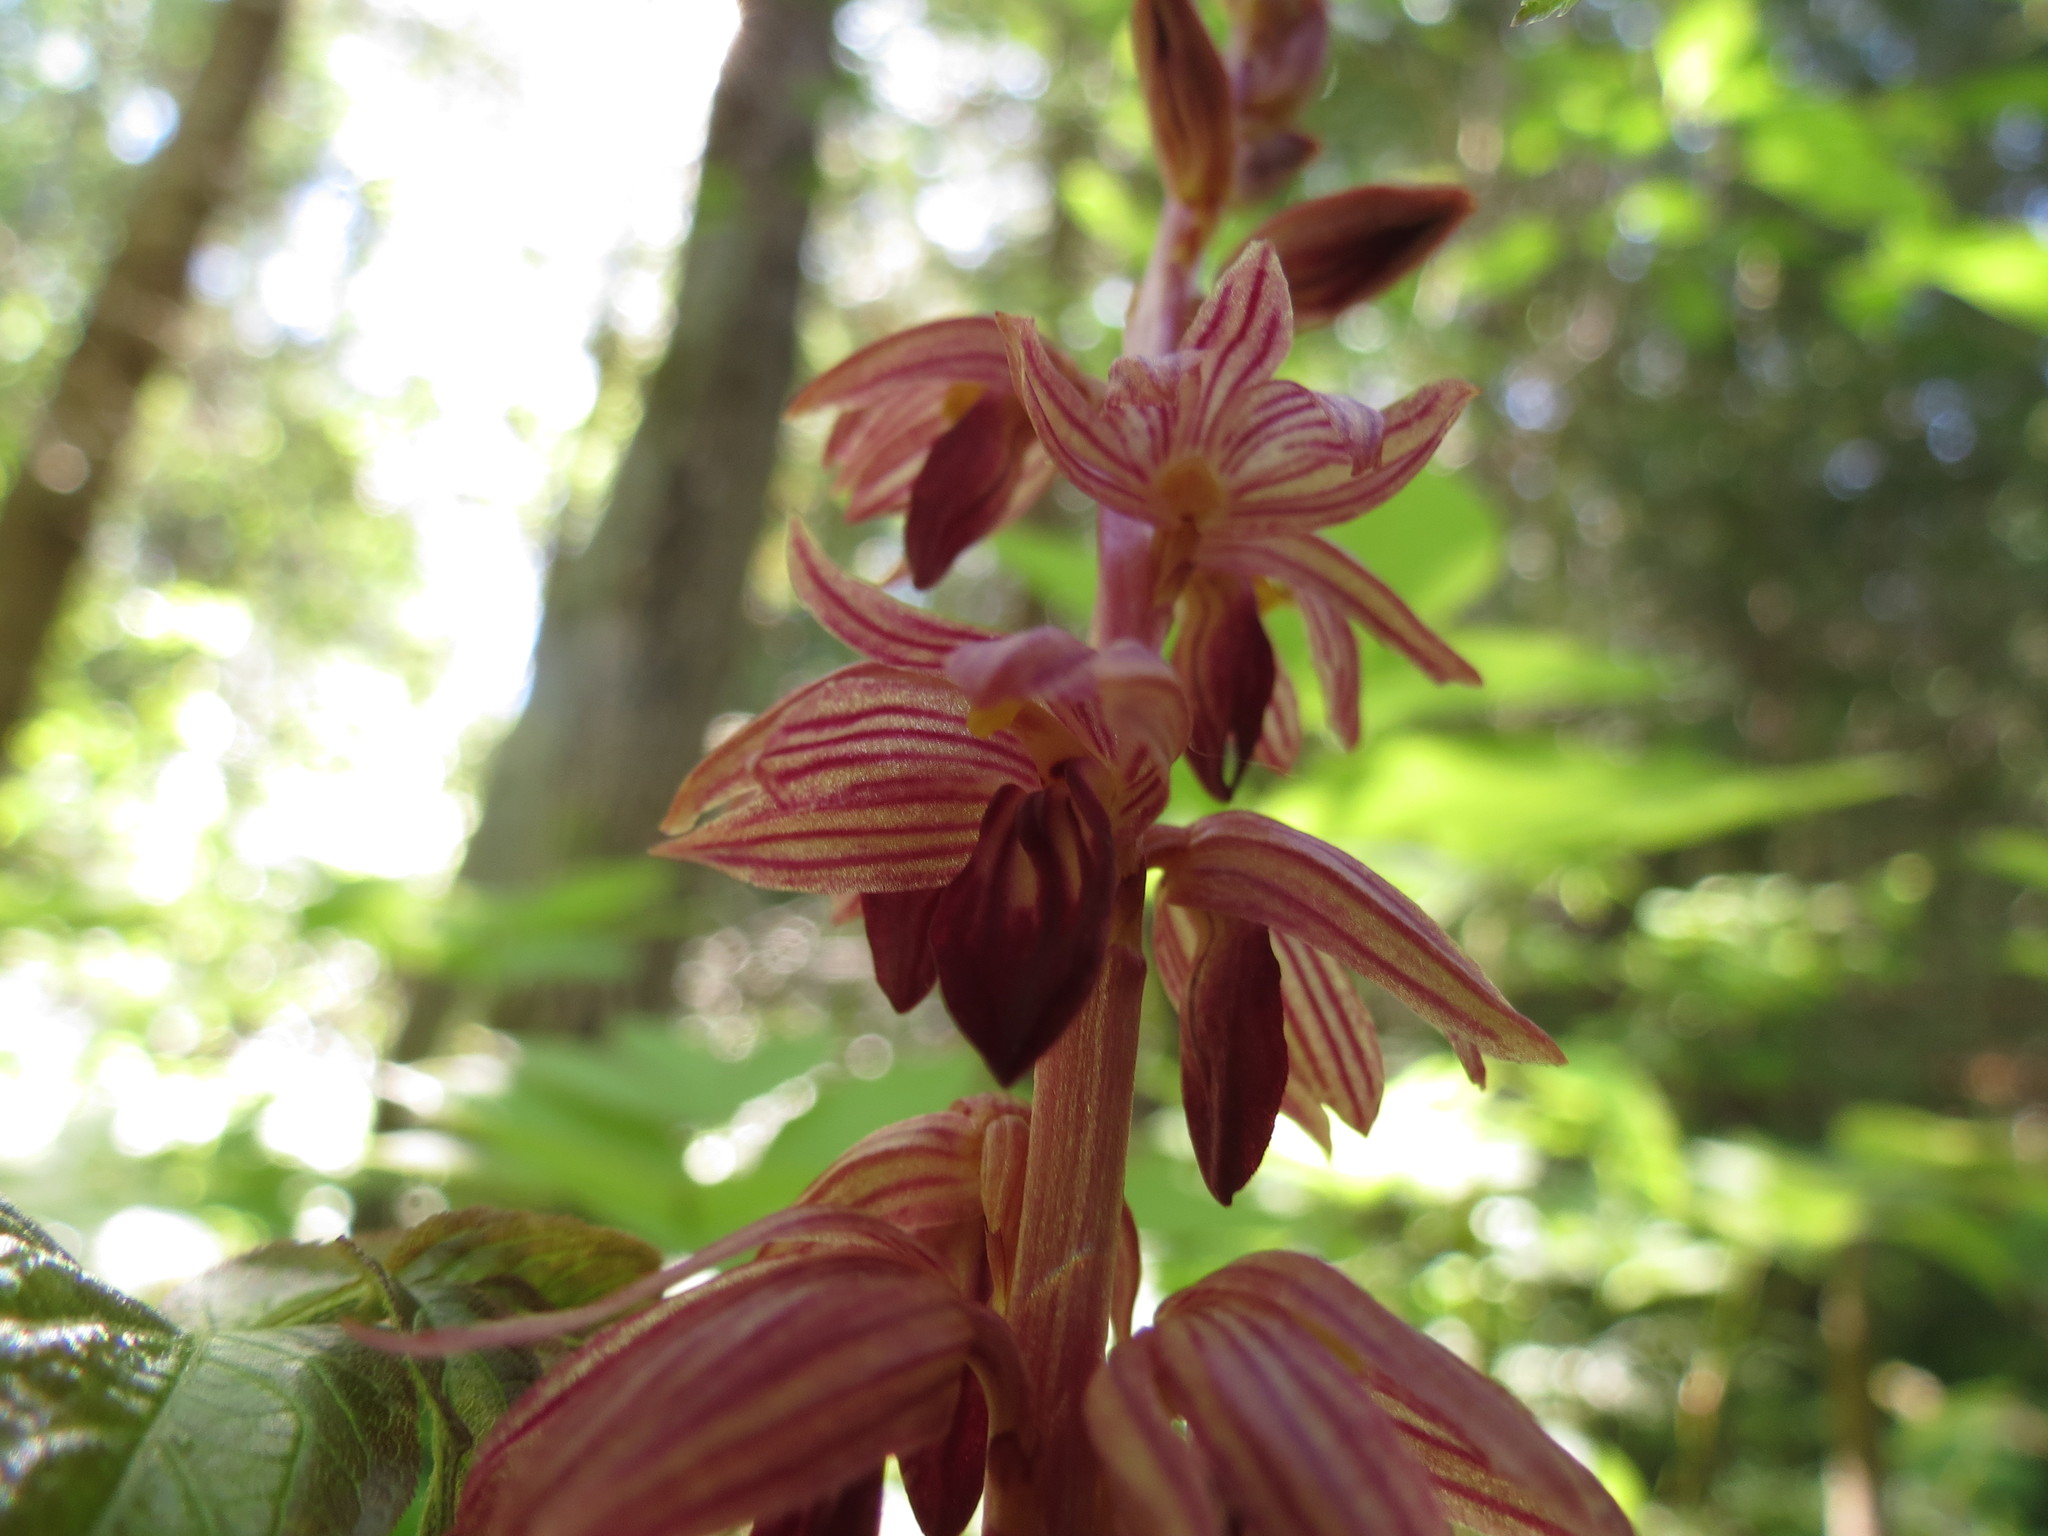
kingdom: Plantae
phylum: Tracheophyta
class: Liliopsida
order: Asparagales
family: Orchidaceae
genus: Corallorhiza
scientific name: Corallorhiza striata
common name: Hooded coralroot
